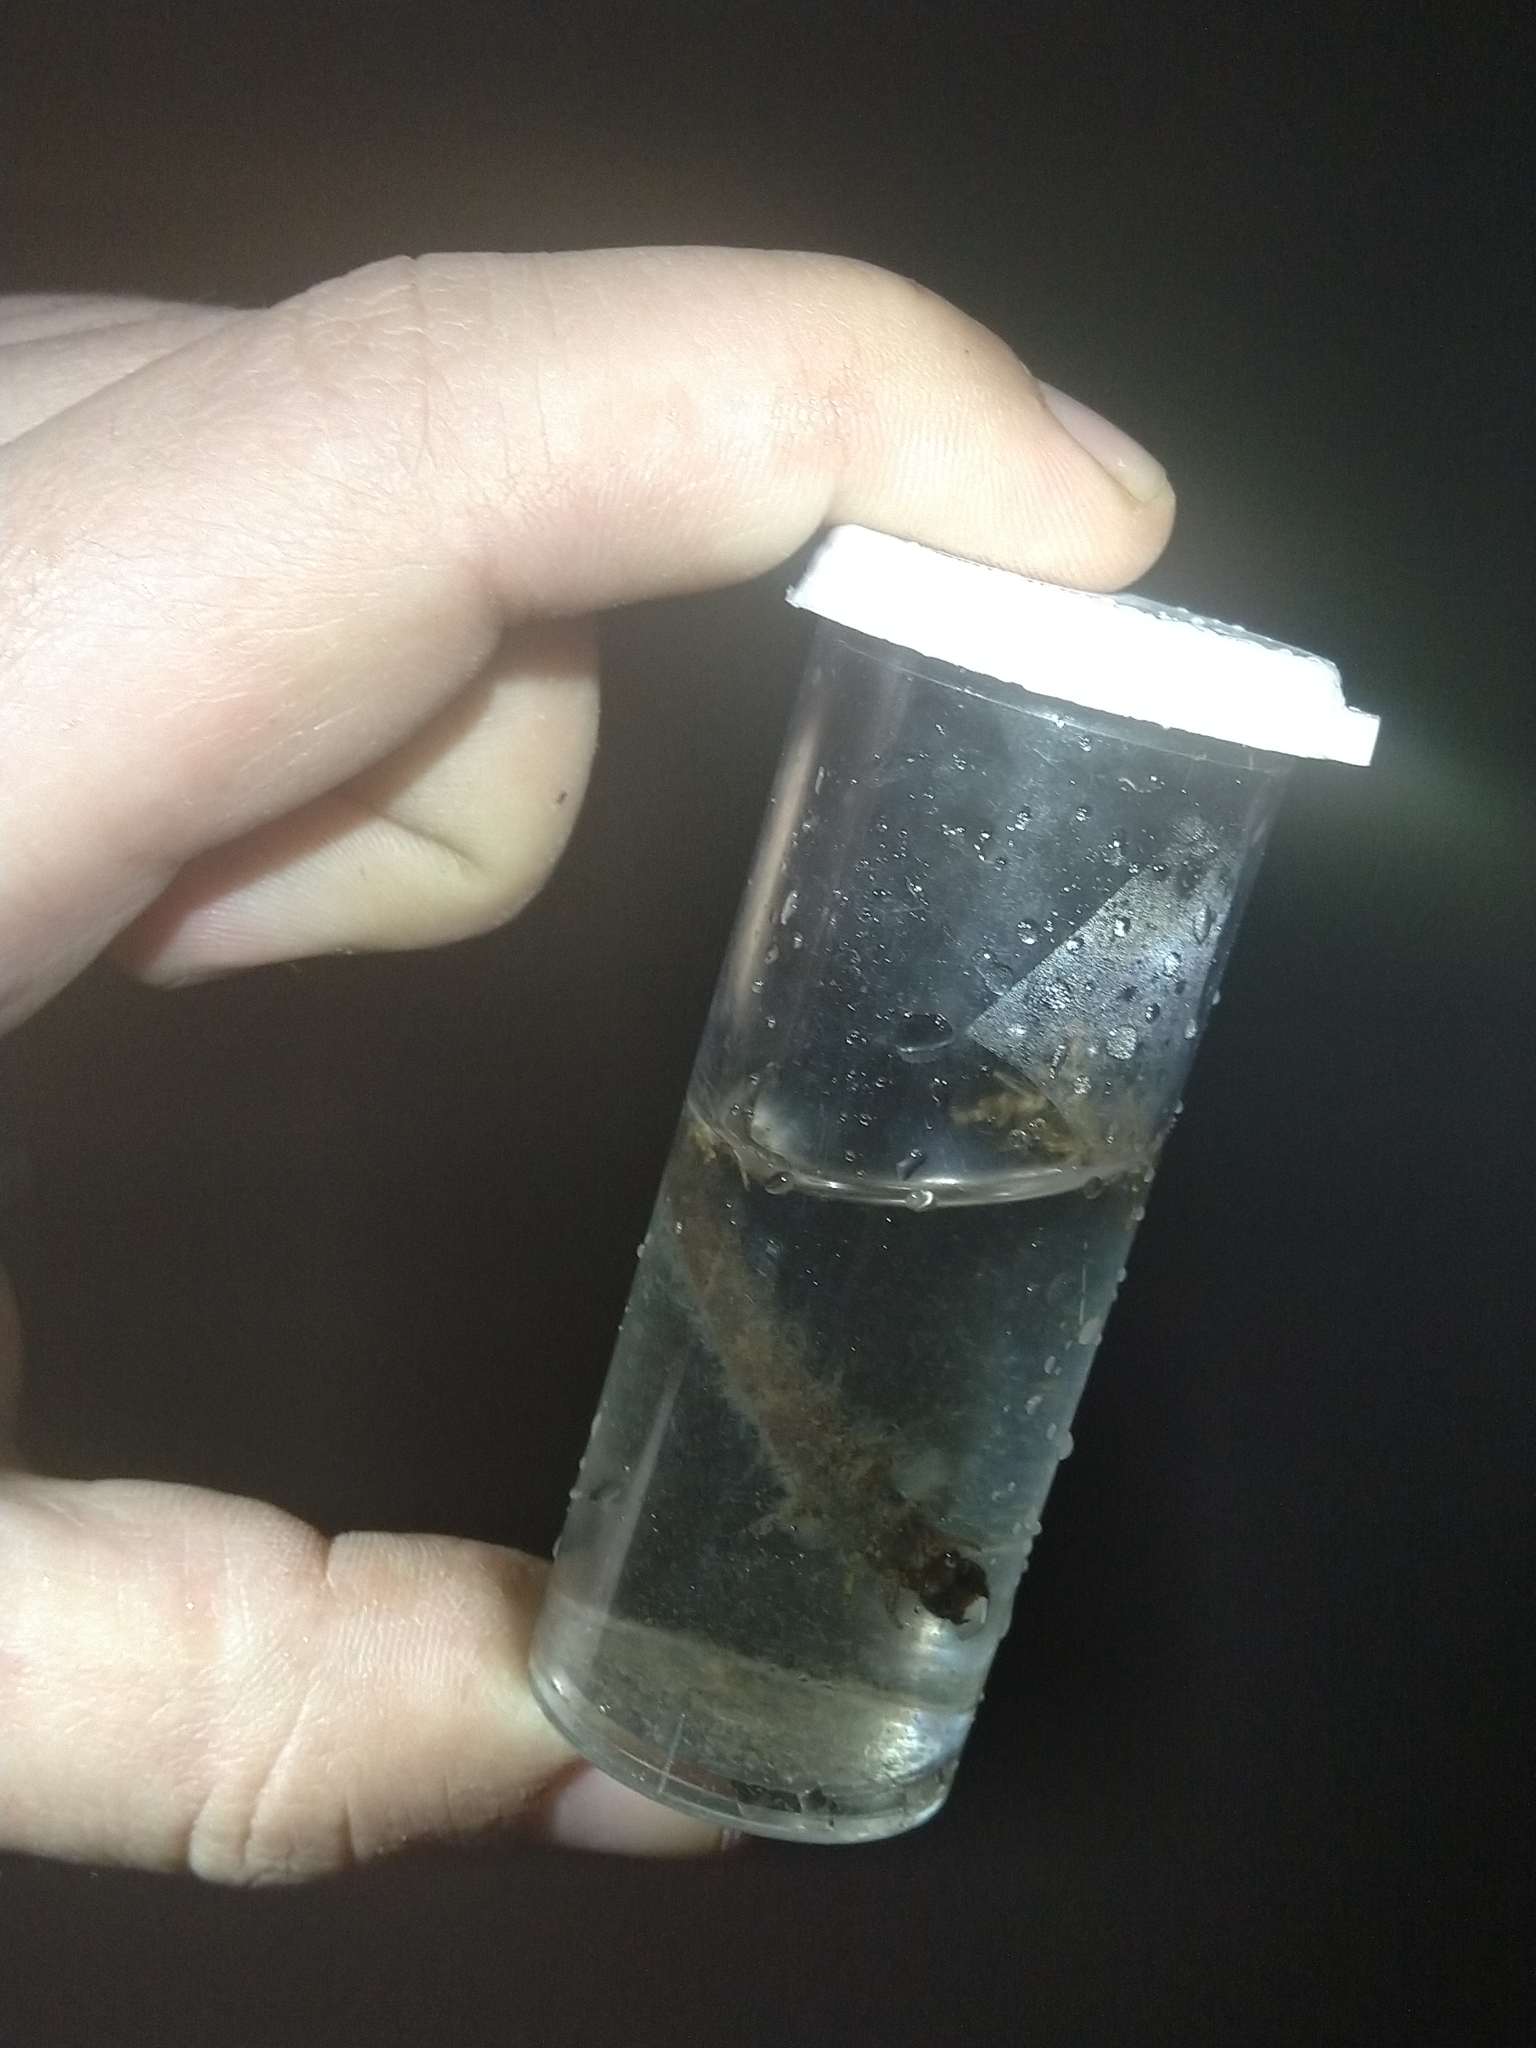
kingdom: Animalia
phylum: Arthropoda
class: Insecta
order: Megaloptera
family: Corydalidae
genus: Chauliodes
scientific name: Chauliodes
